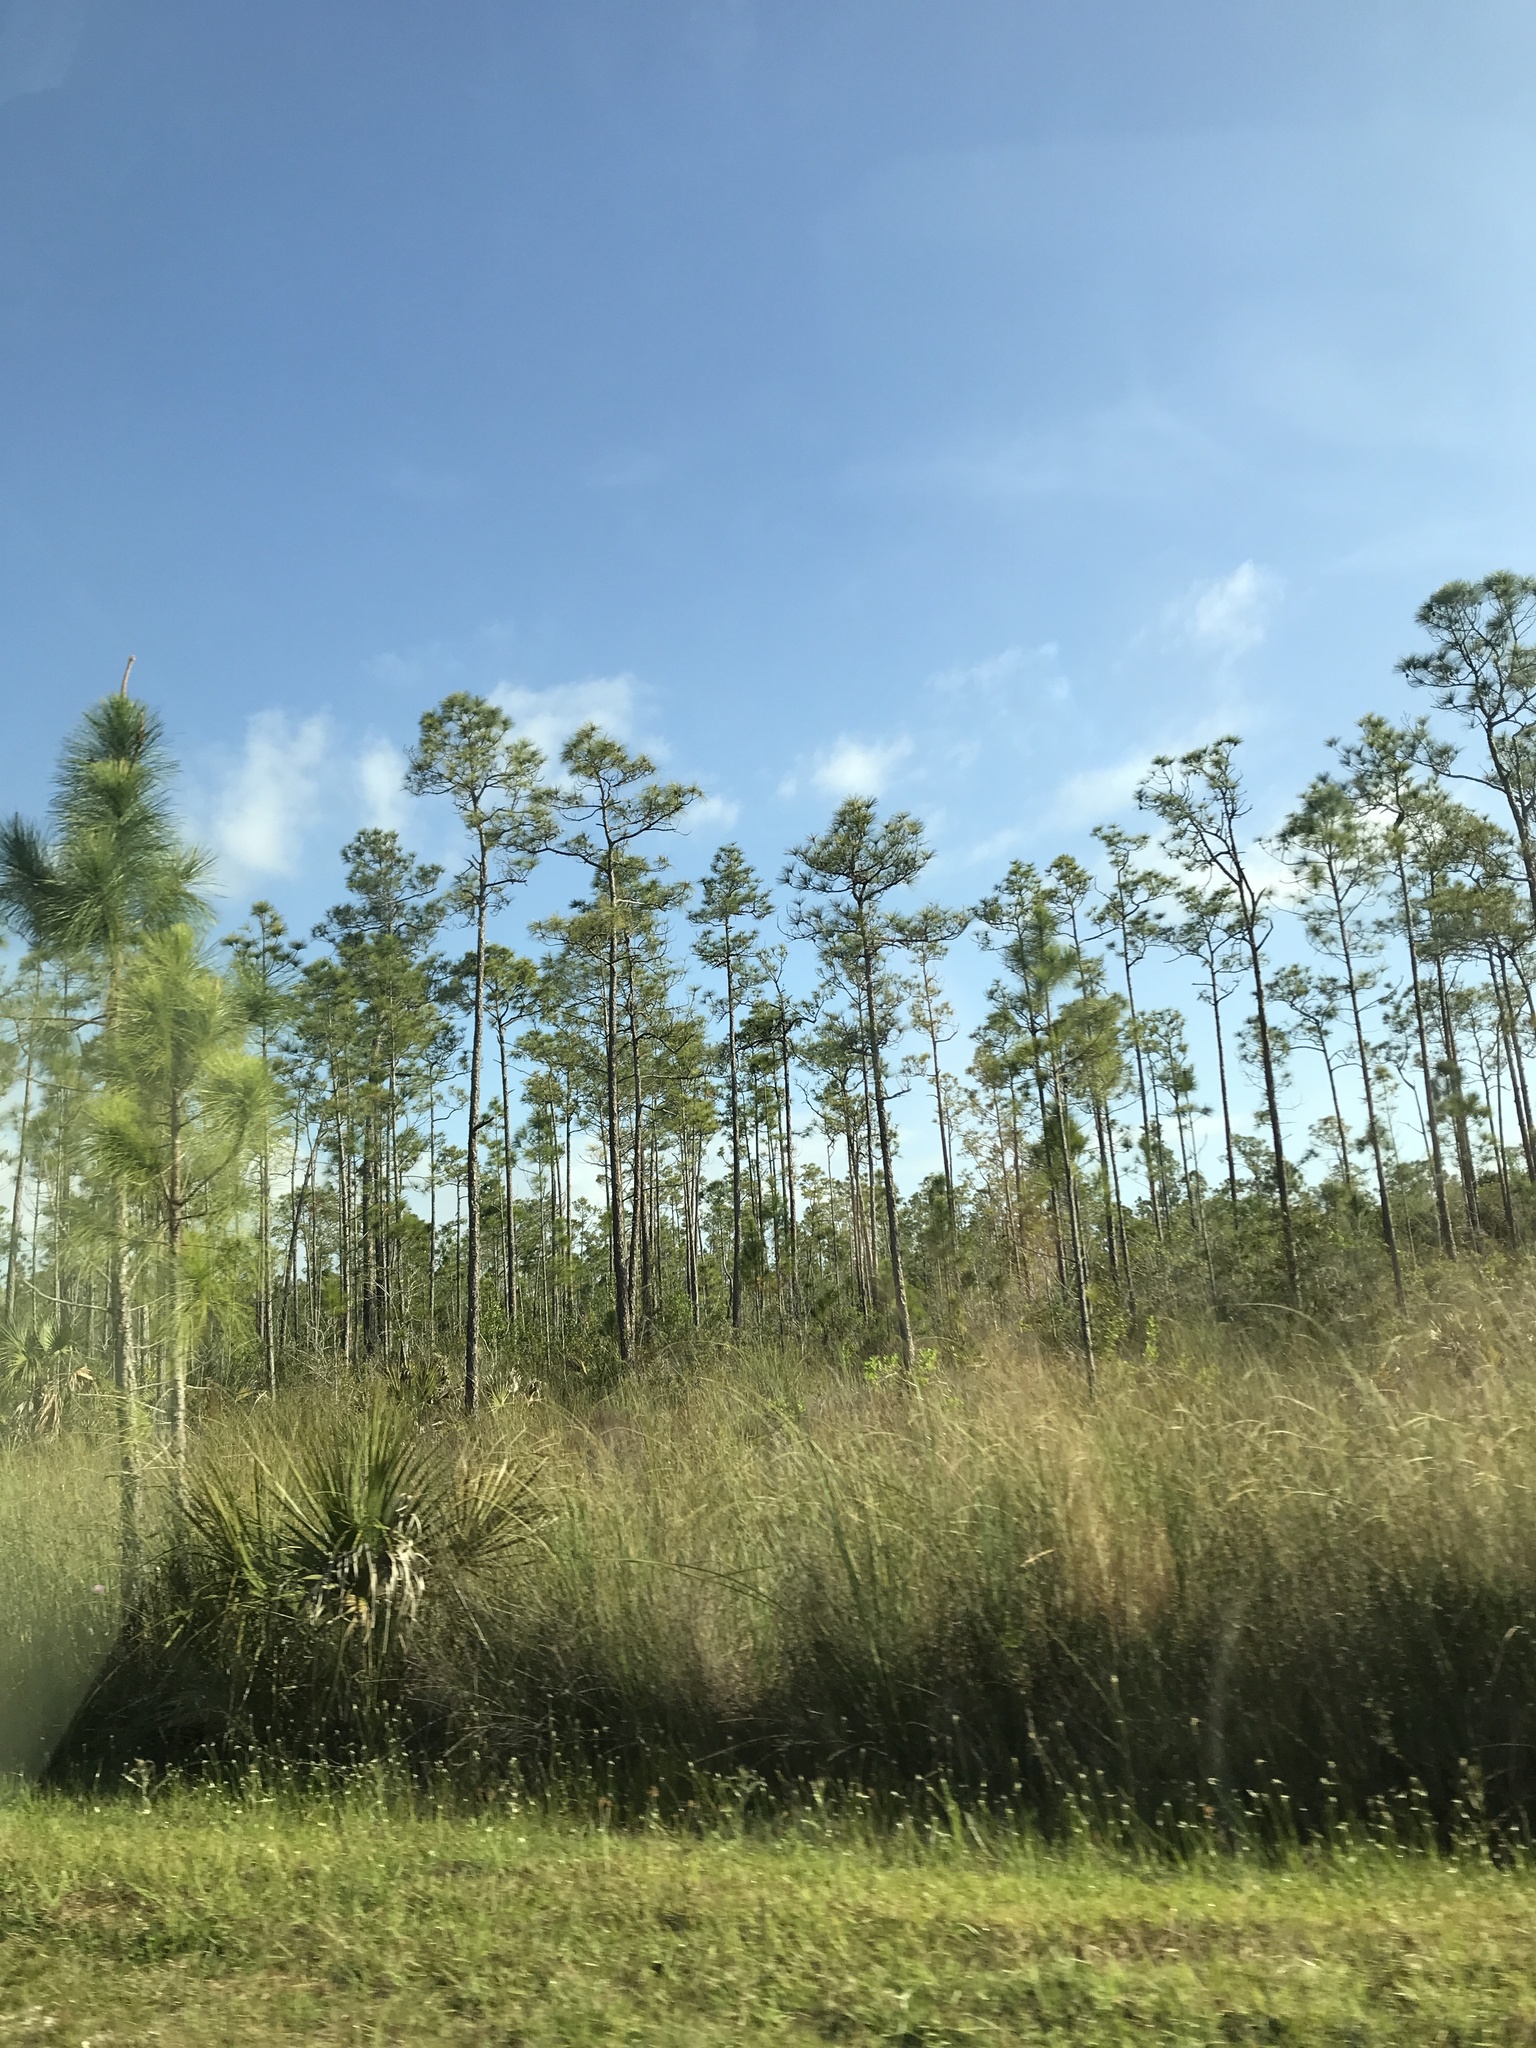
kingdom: Plantae
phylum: Tracheophyta
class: Pinopsida
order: Pinales
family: Pinaceae
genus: Pinus
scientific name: Pinus elliottii
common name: Slash pine
